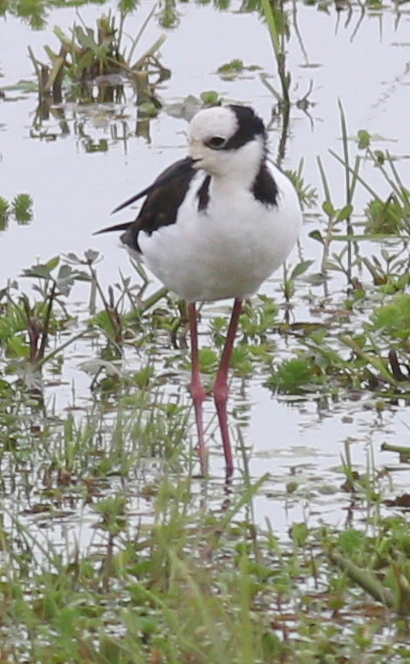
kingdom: Animalia
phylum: Chordata
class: Aves
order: Charadriiformes
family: Recurvirostridae
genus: Himantopus
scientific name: Himantopus mexicanus
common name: Black-necked stilt
